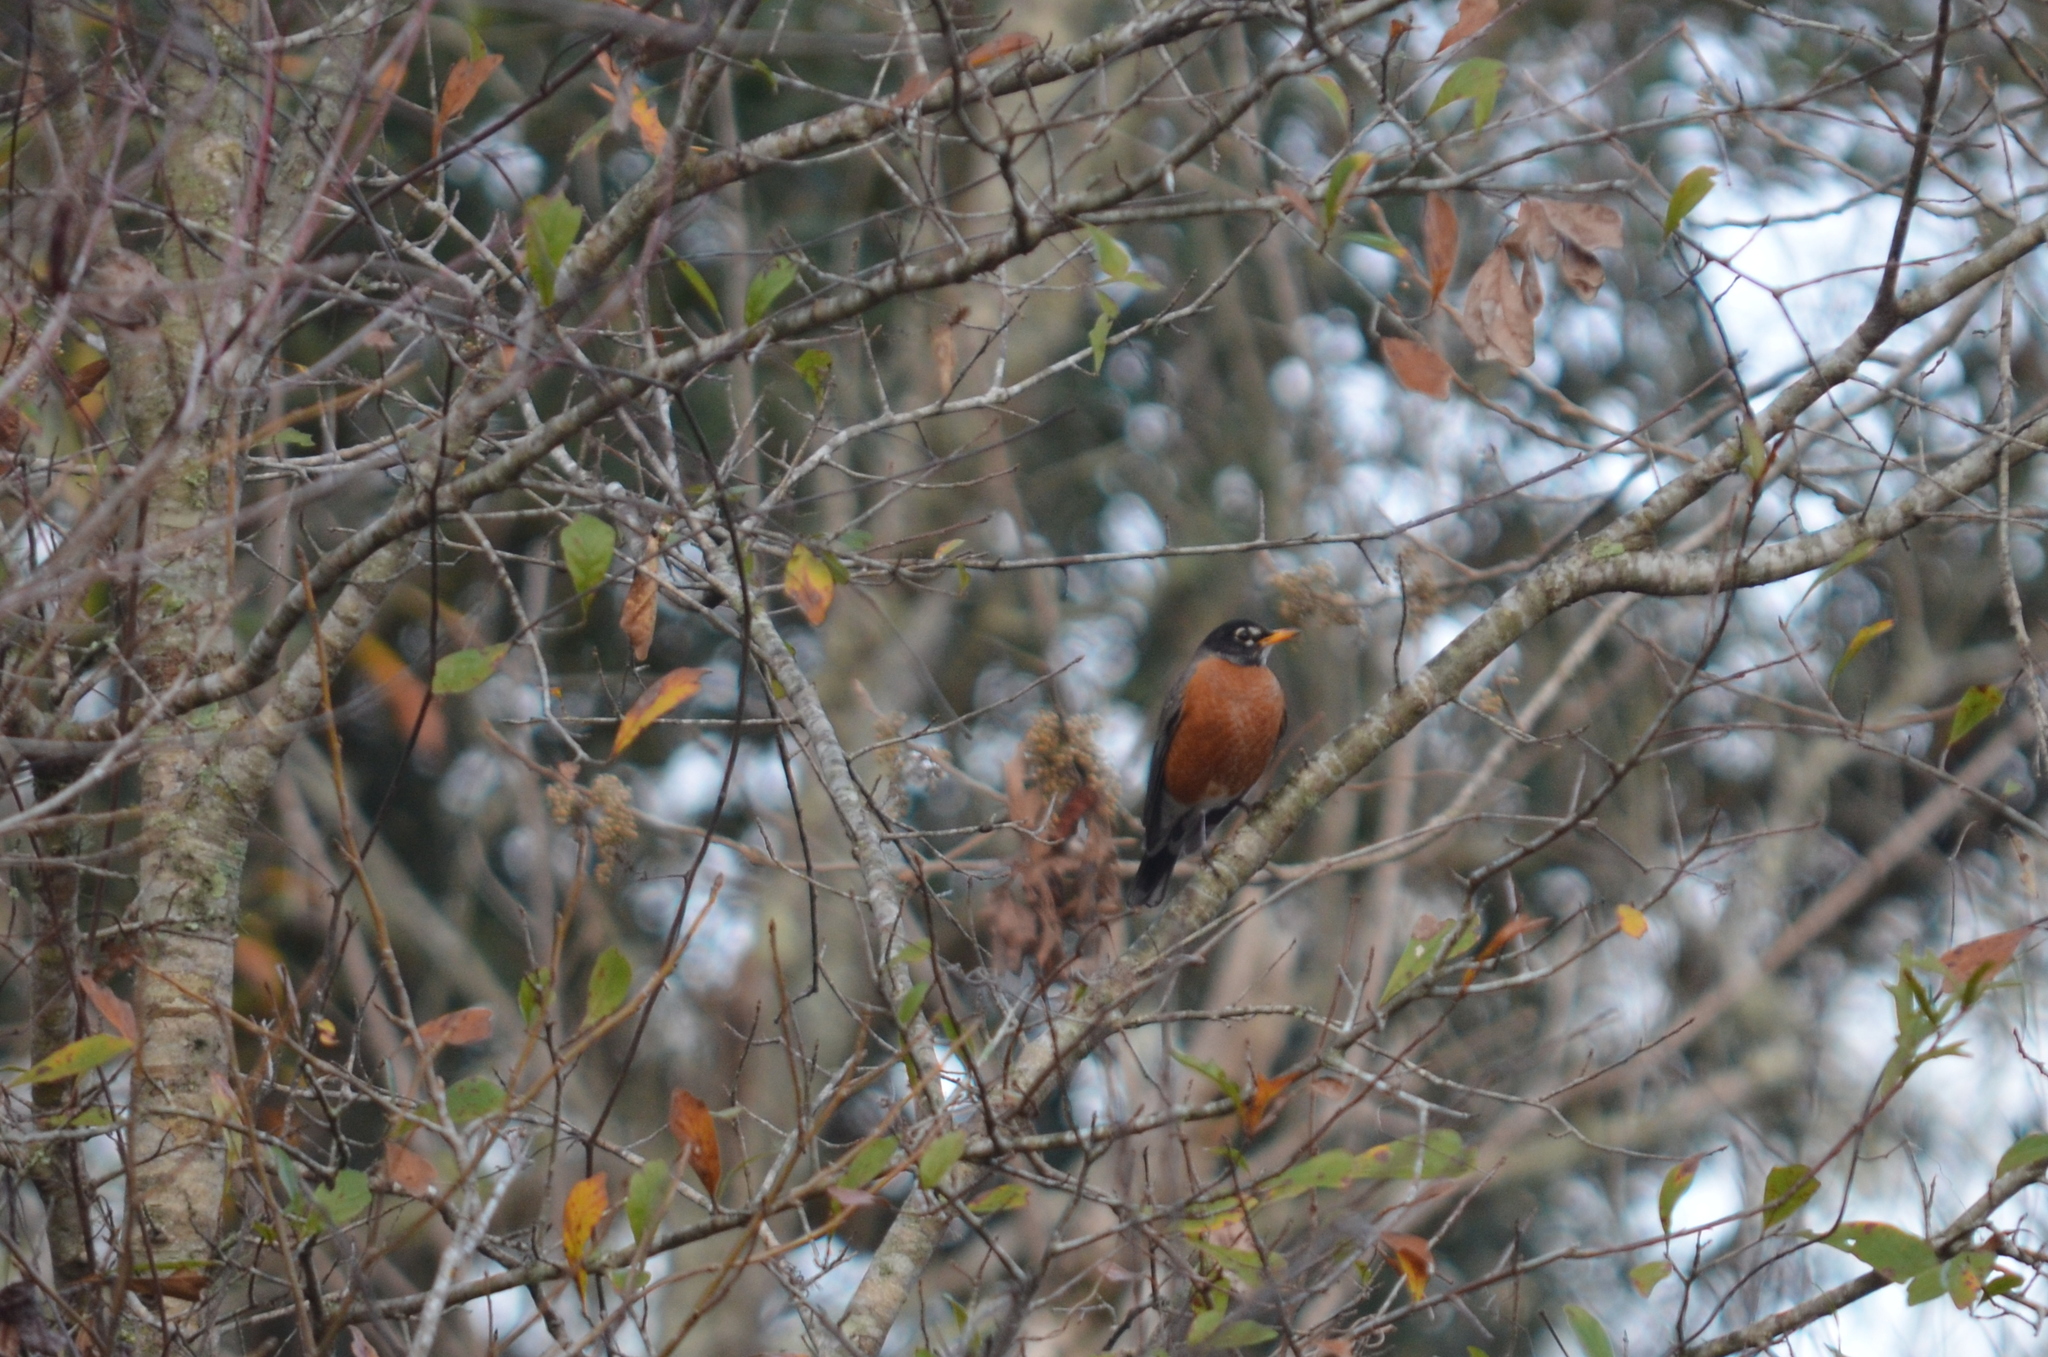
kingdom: Animalia
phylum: Chordata
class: Aves
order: Passeriformes
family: Turdidae
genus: Turdus
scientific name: Turdus migratorius
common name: American robin
